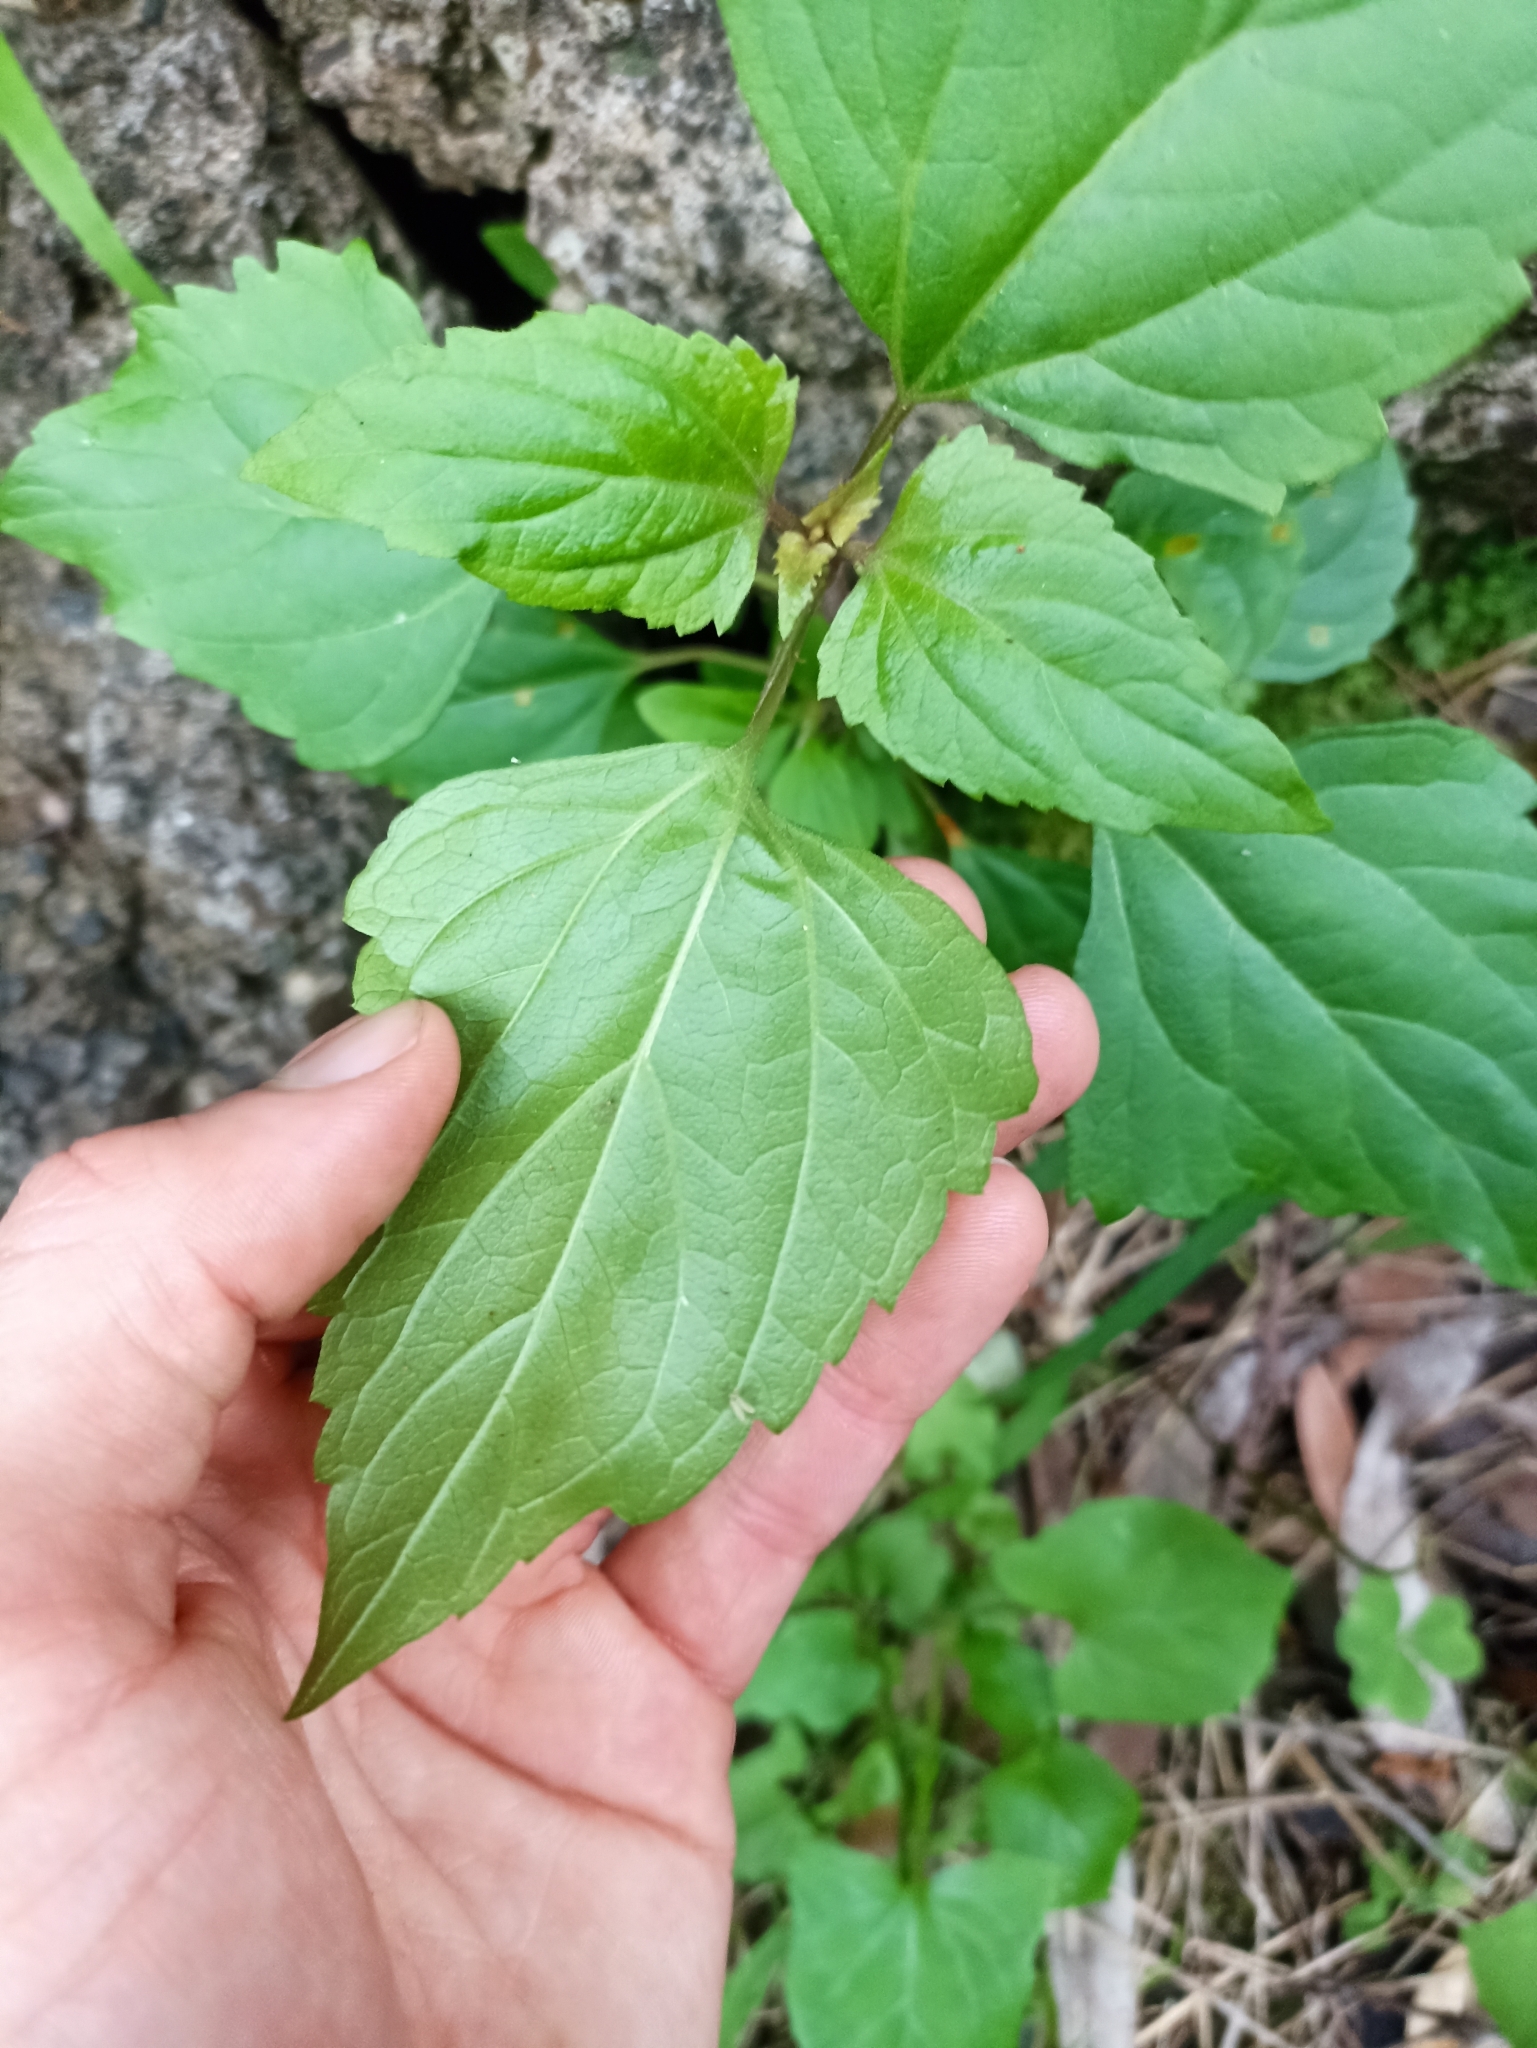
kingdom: Plantae
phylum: Tracheophyta
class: Magnoliopsida
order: Asterales
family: Asteraceae
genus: Ageratina
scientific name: Ageratina adenophora
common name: Sticky snakeroot
